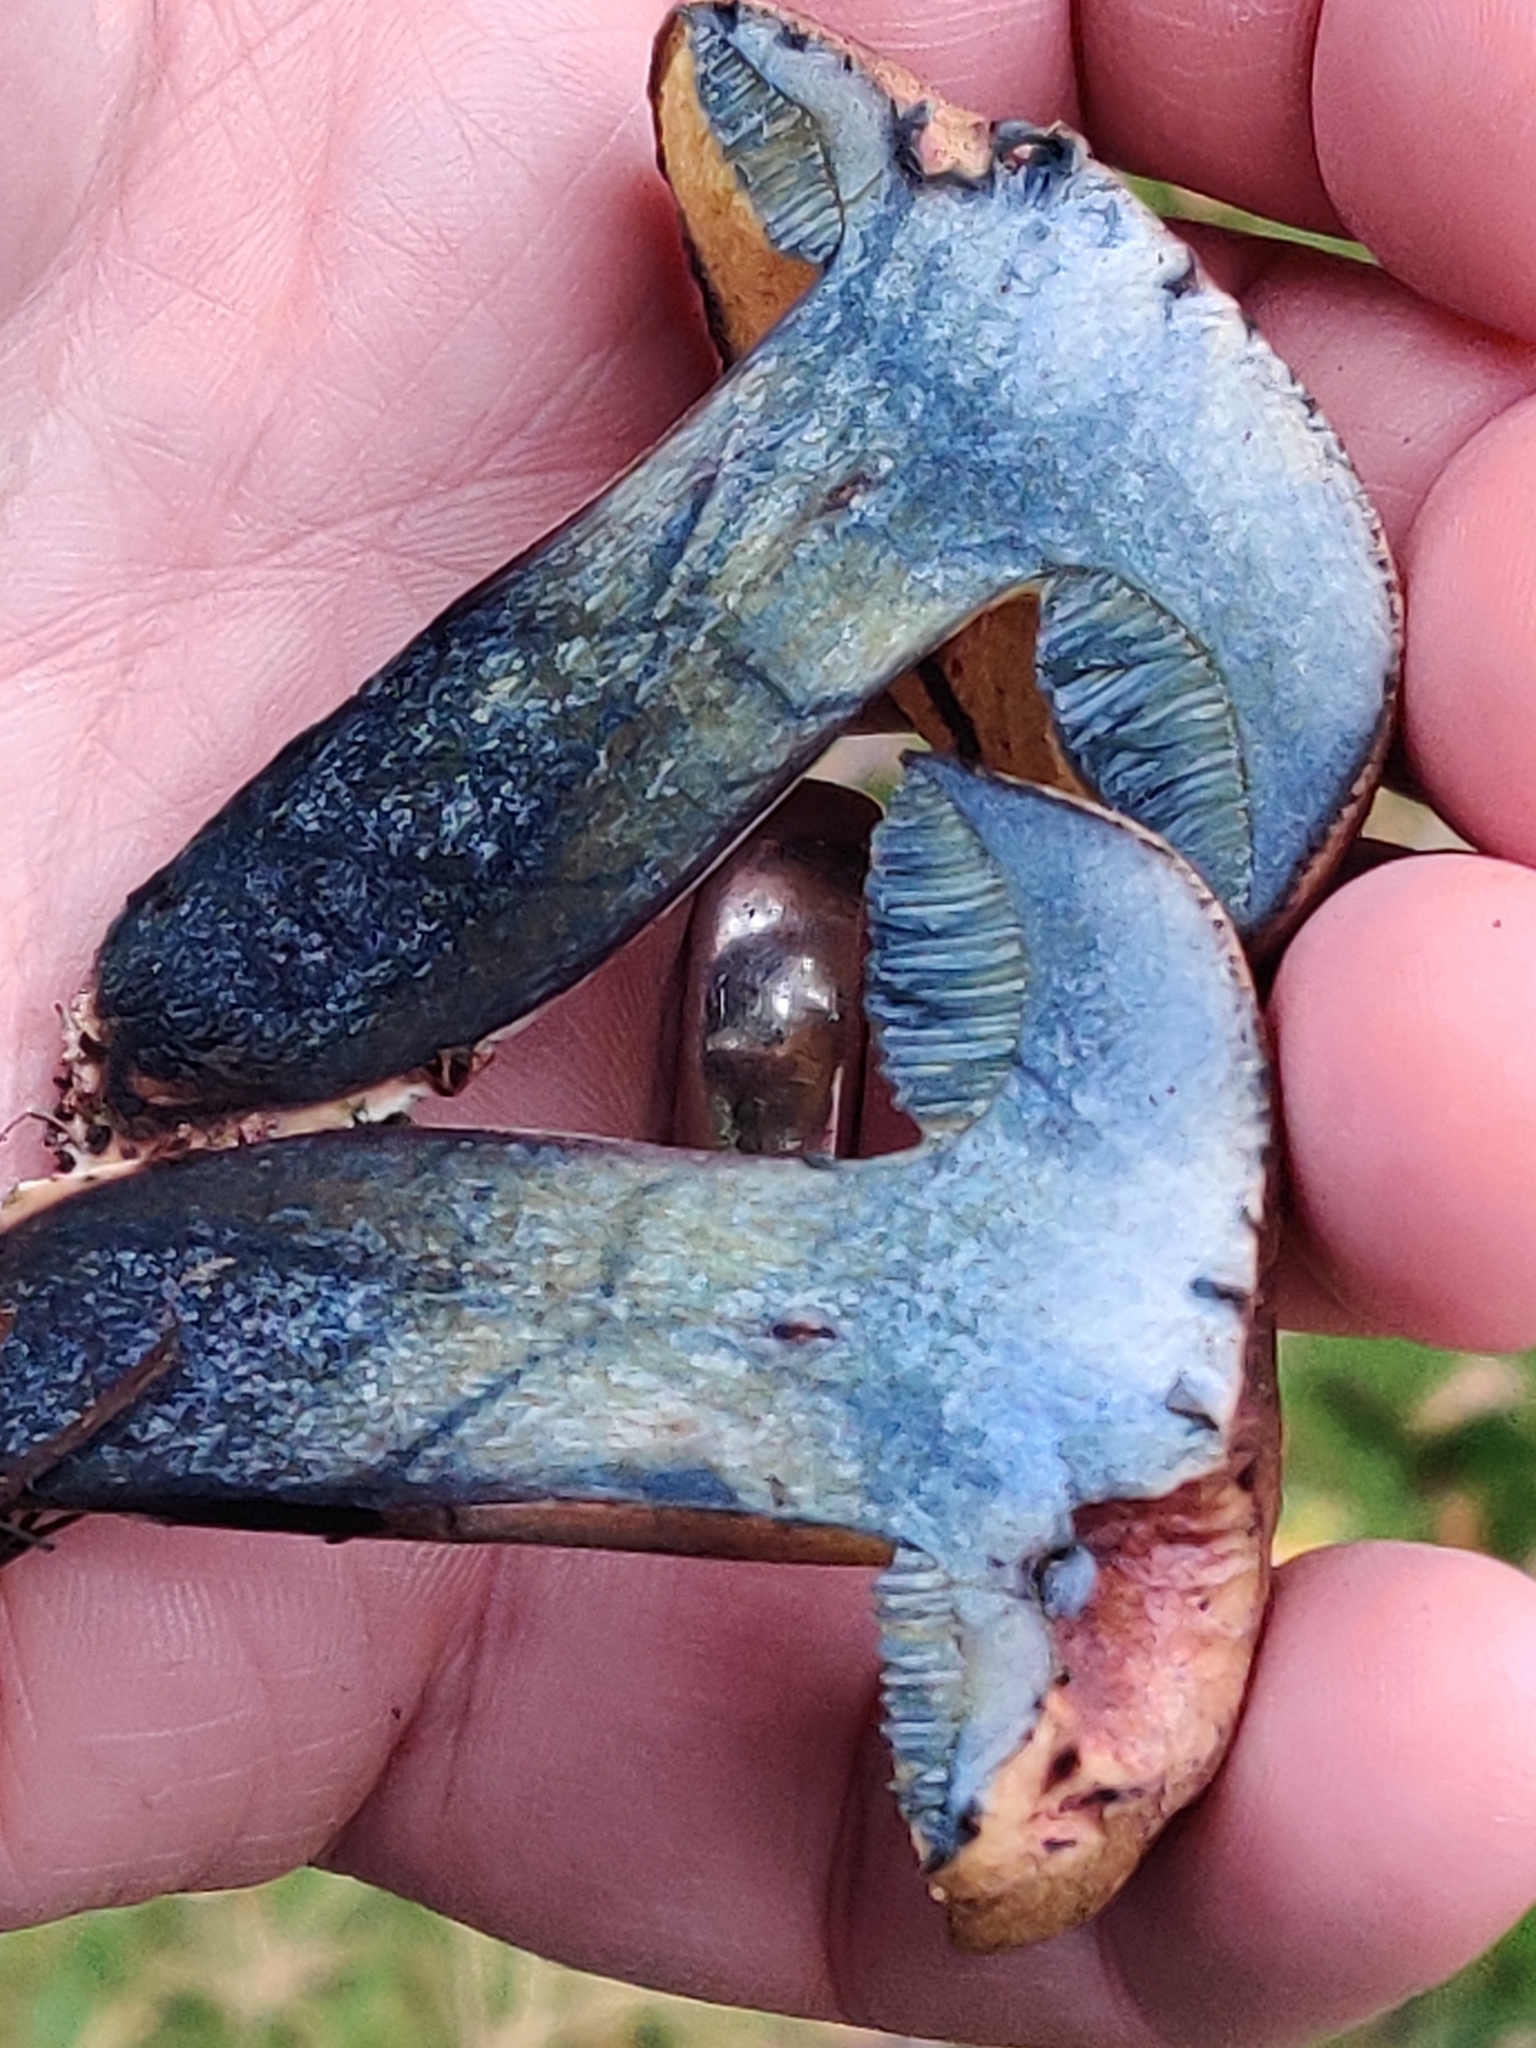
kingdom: Fungi
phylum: Basidiomycota
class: Agaricomycetes
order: Boletales
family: Boletaceae
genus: Cyanoboletus
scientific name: Cyanoboletus pulverulentus
